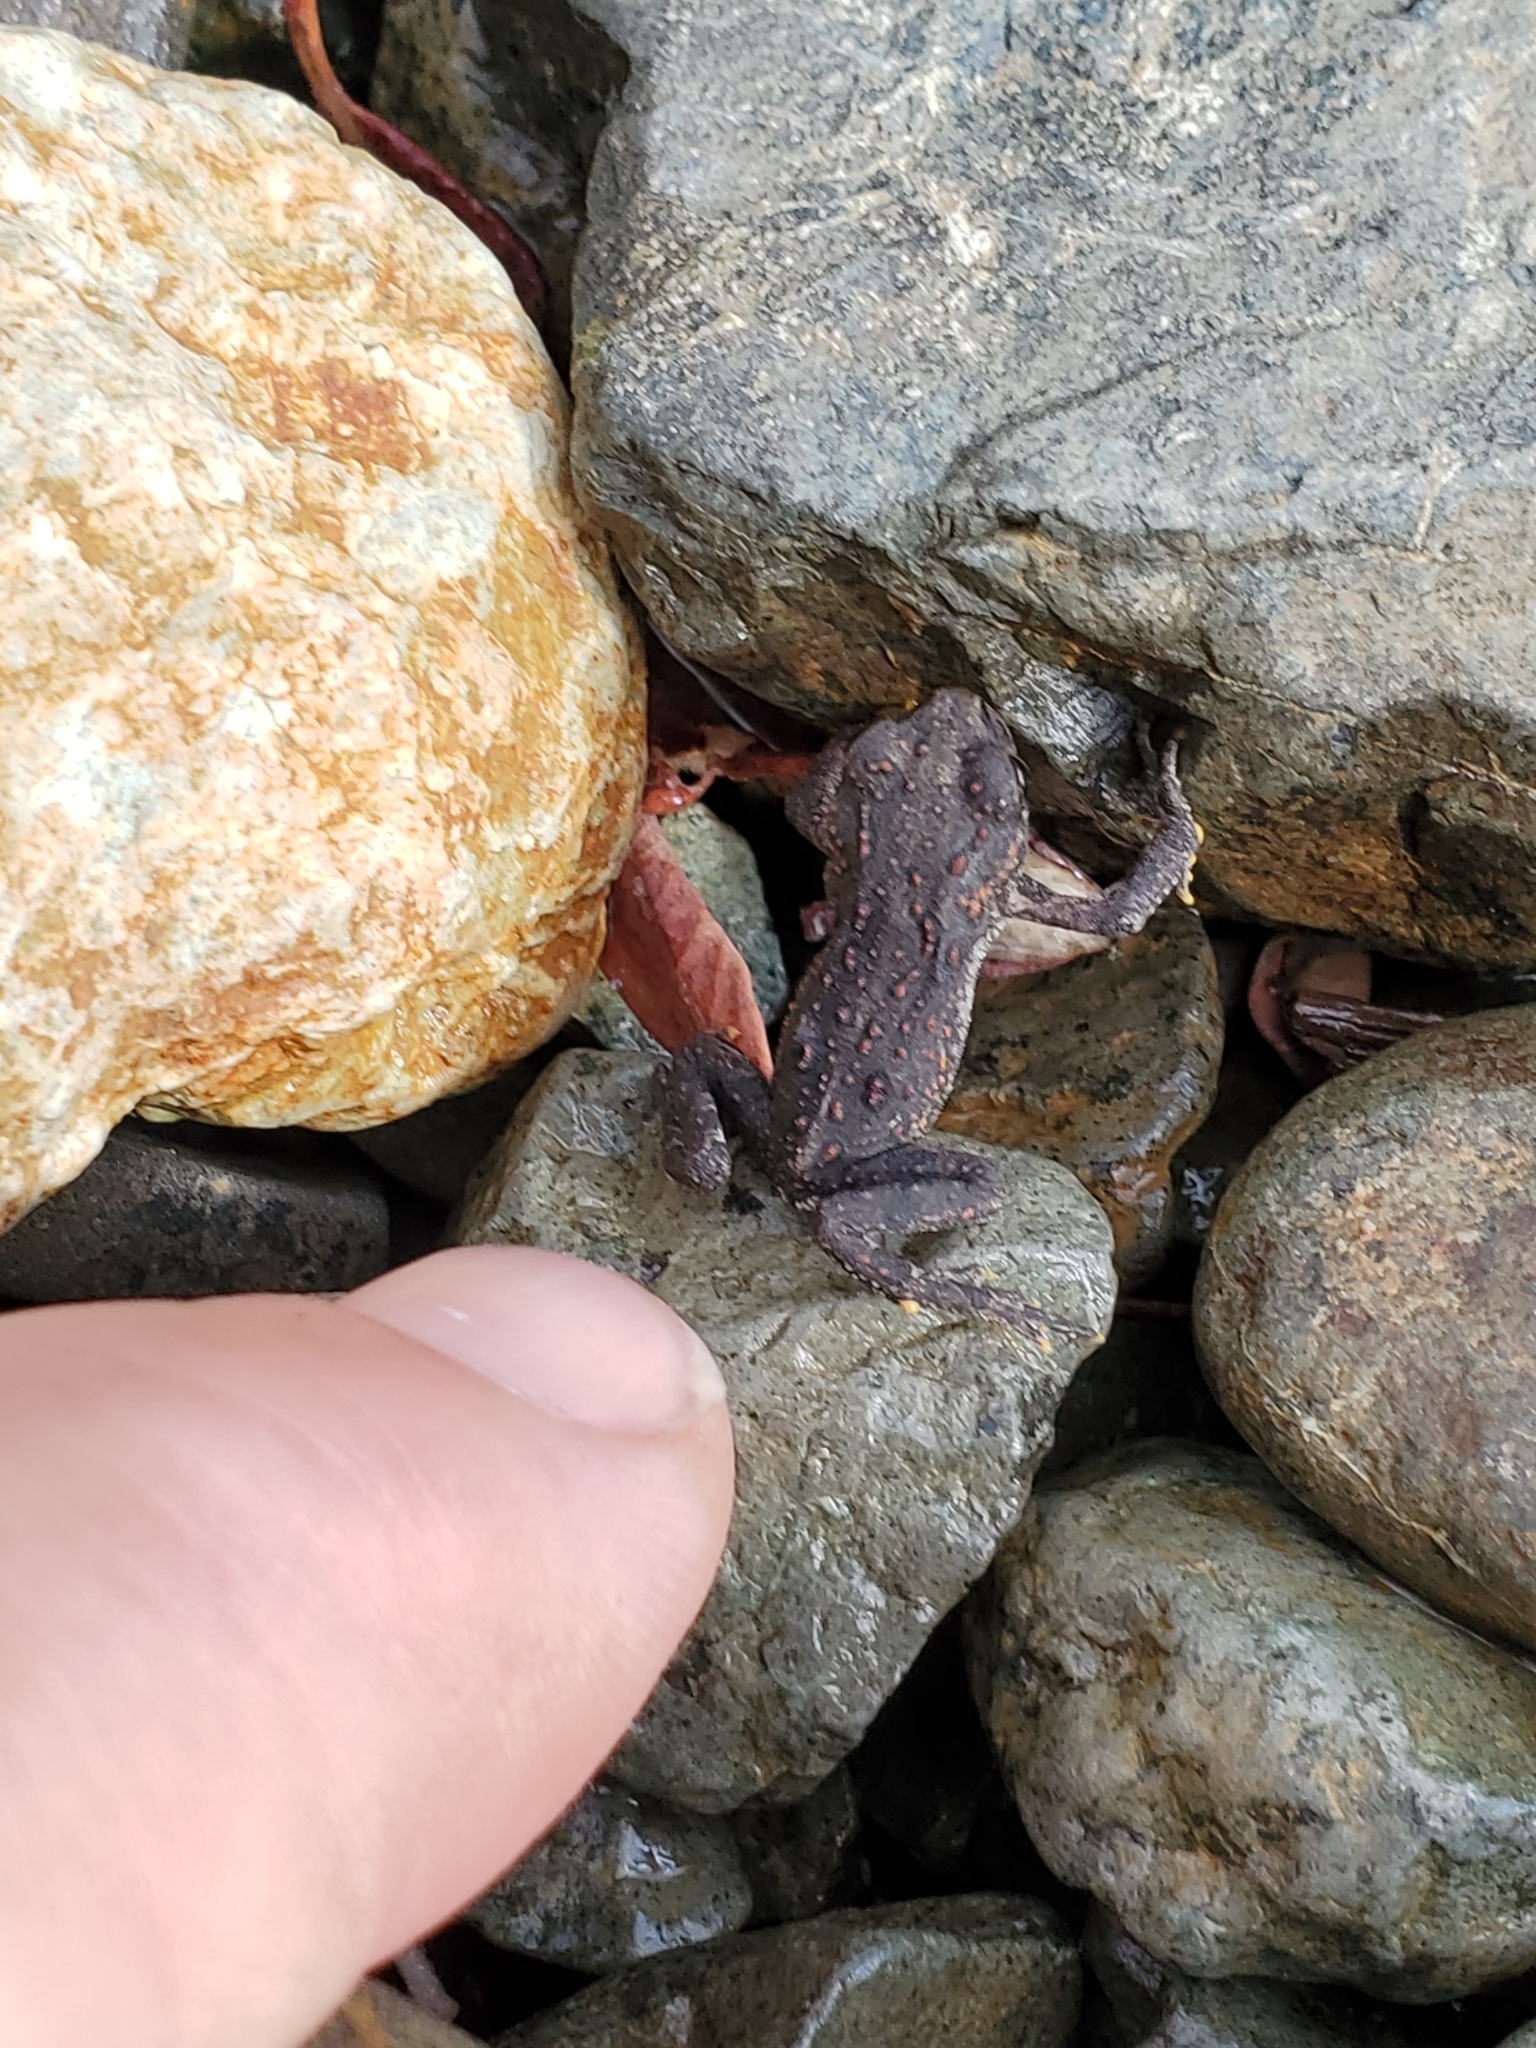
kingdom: Animalia
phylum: Chordata
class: Amphibia
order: Anura
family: Bufonidae
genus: Anaxyrus
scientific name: Anaxyrus boreas
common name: Western toad
